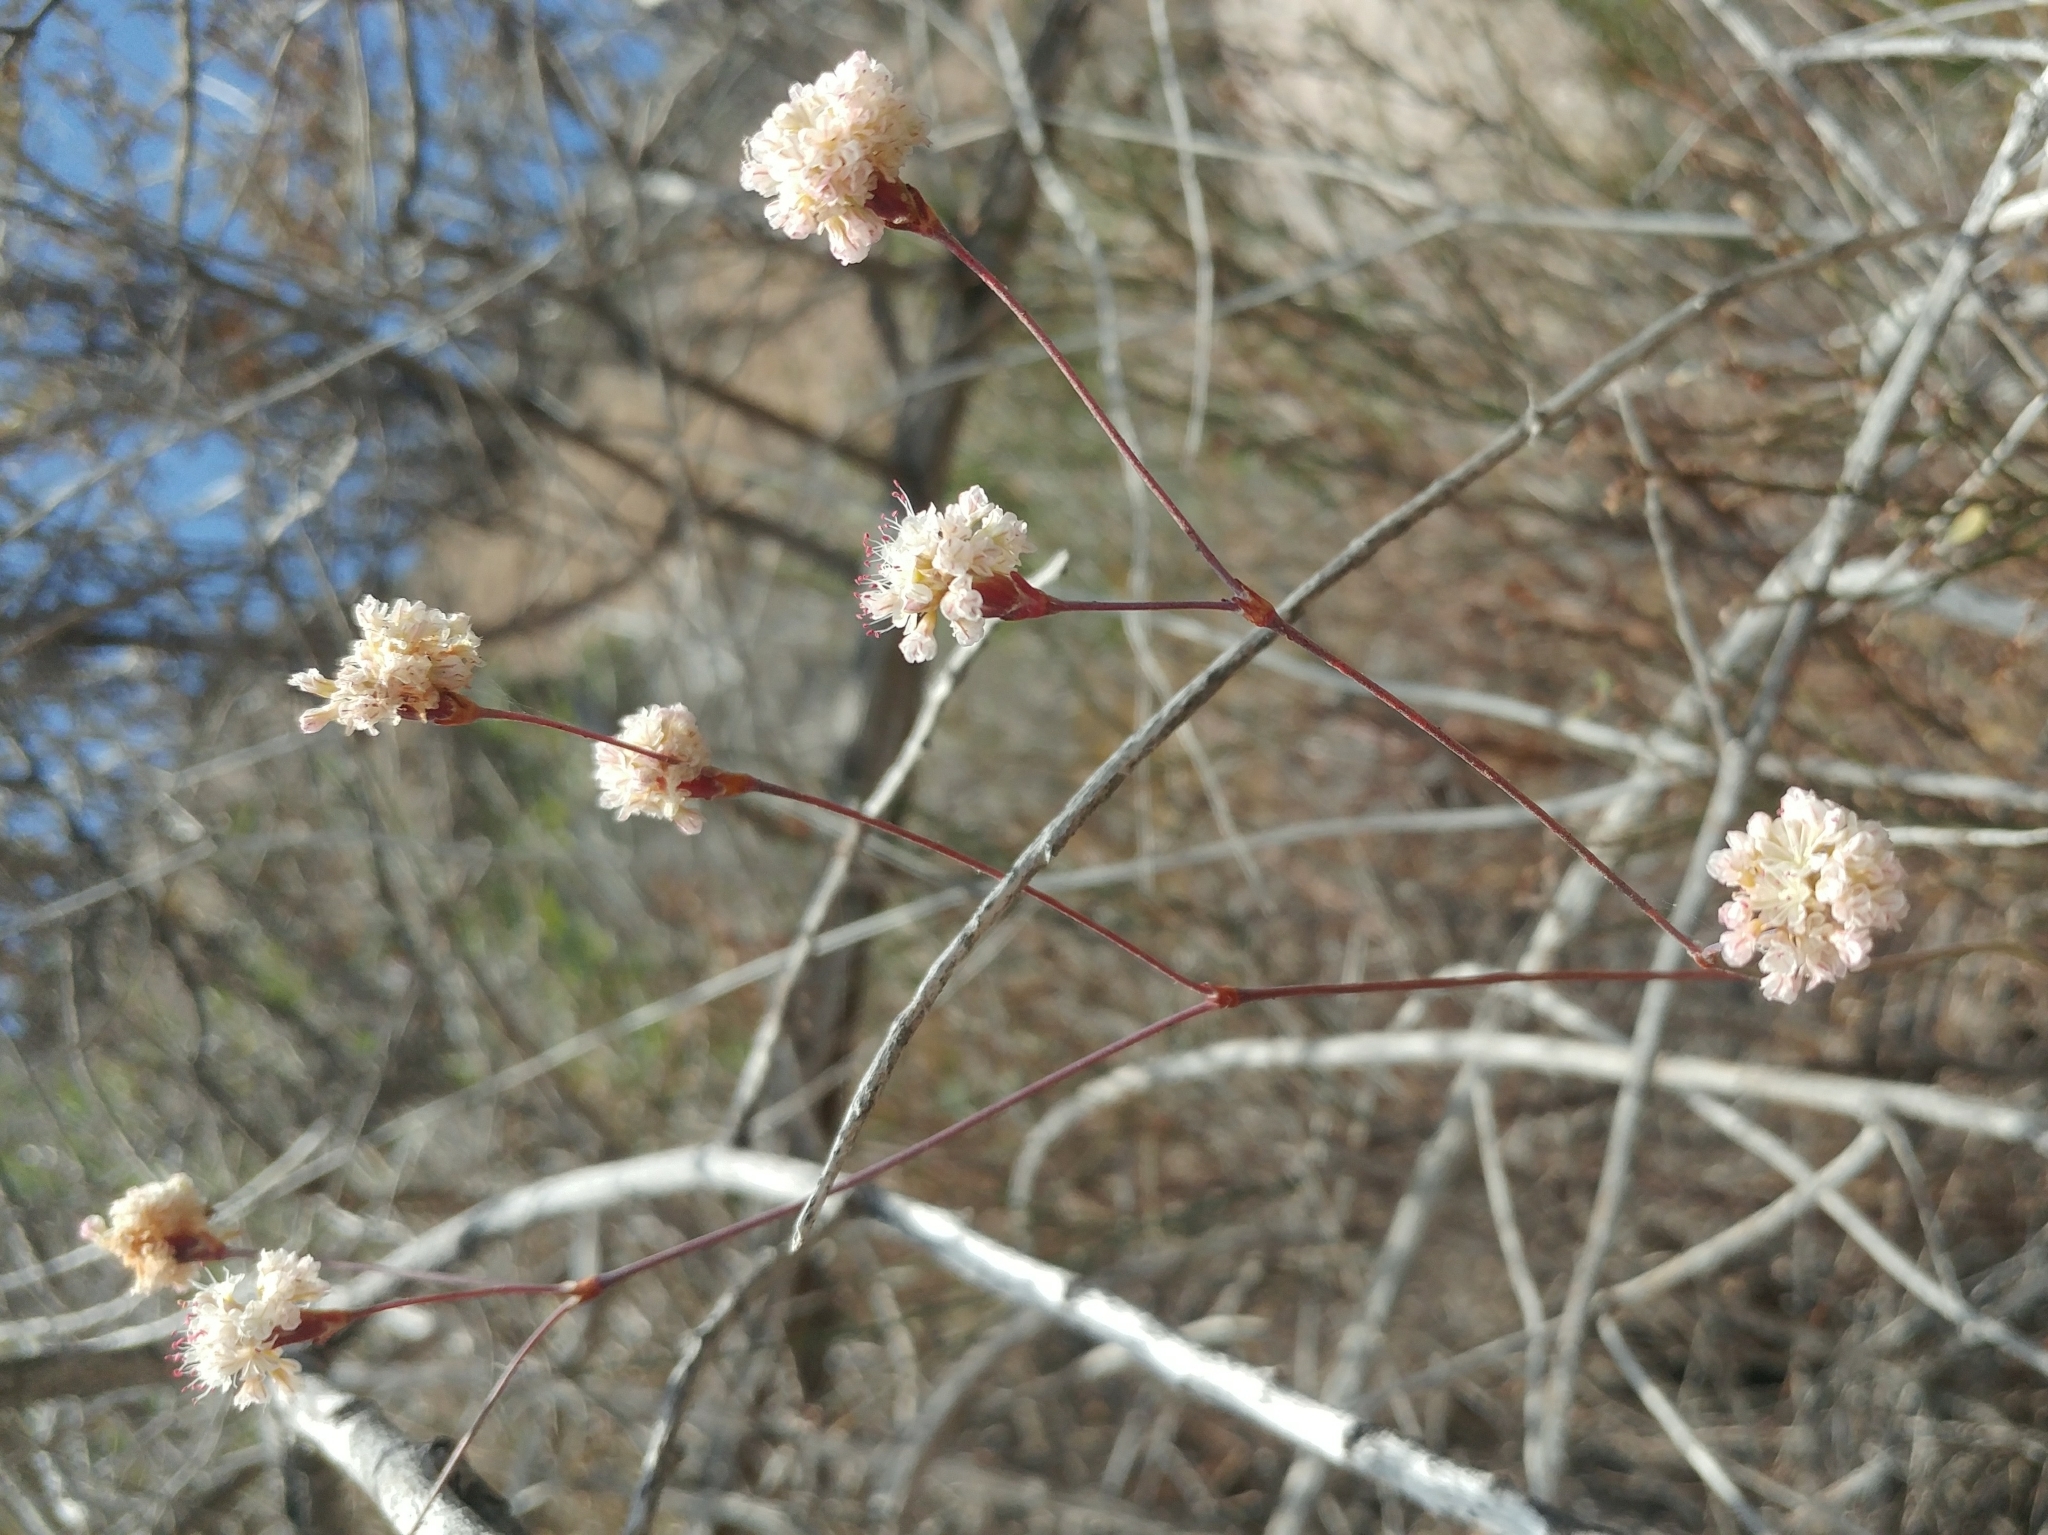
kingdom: Plantae
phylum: Tracheophyta
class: Magnoliopsida
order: Caryophyllales
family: Polygonaceae
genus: Eriogonum
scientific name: Eriogonum grande
